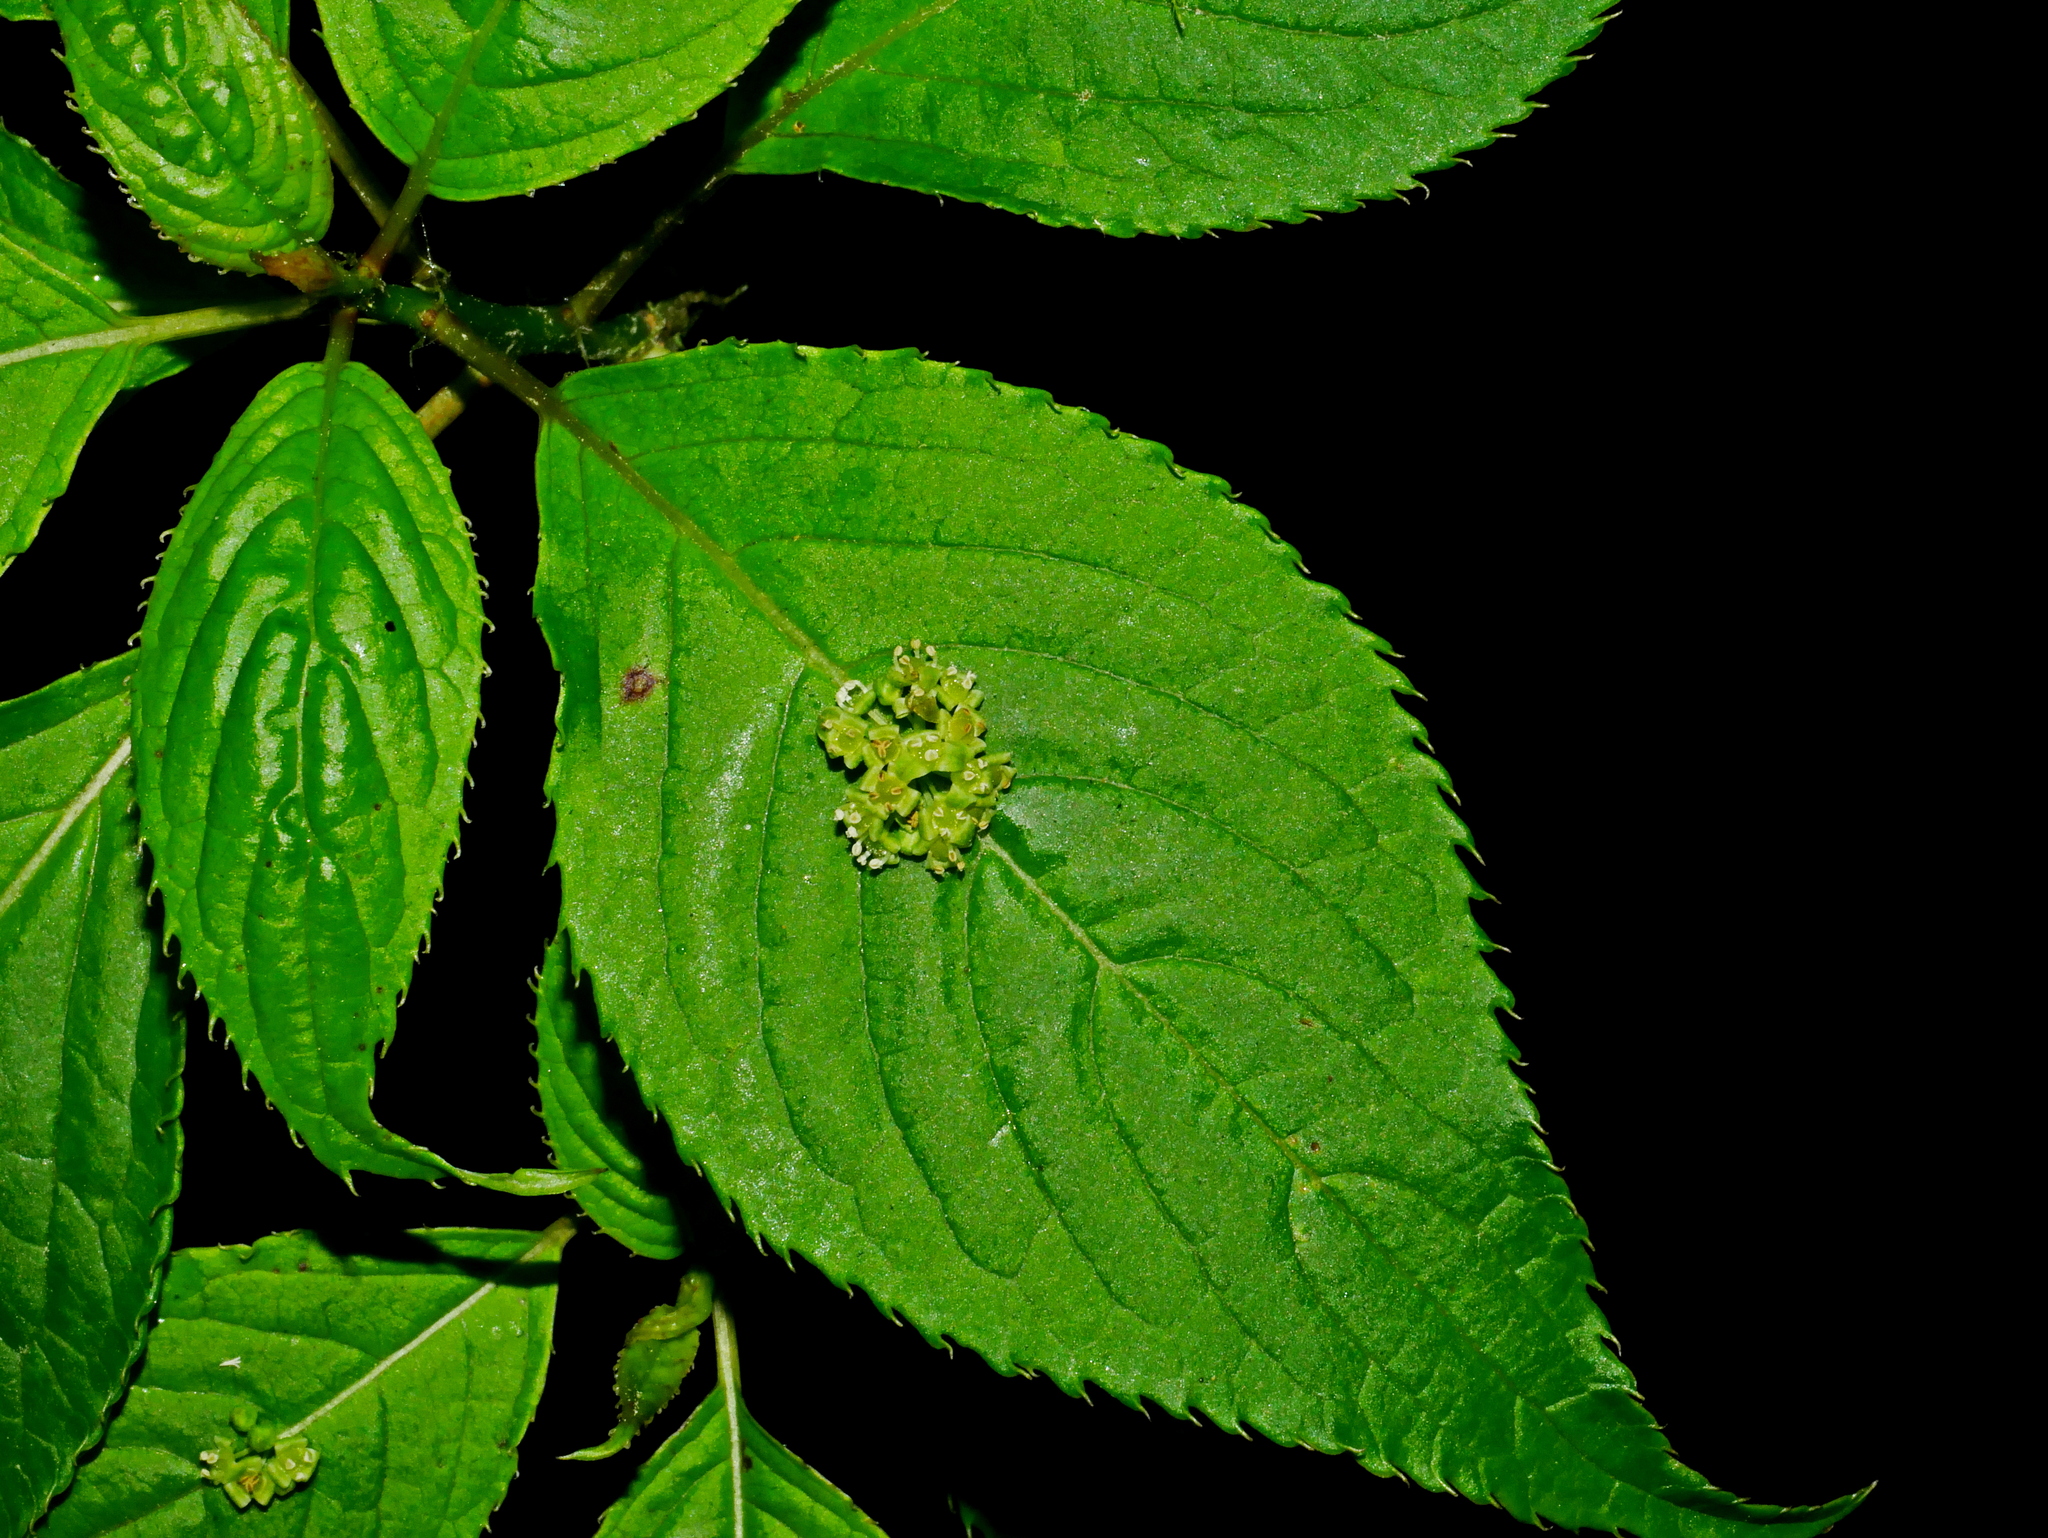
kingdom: Plantae
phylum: Tracheophyta
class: Magnoliopsida
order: Aquifoliales
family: Helwingiaceae
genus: Helwingia
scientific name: Helwingia japonica
